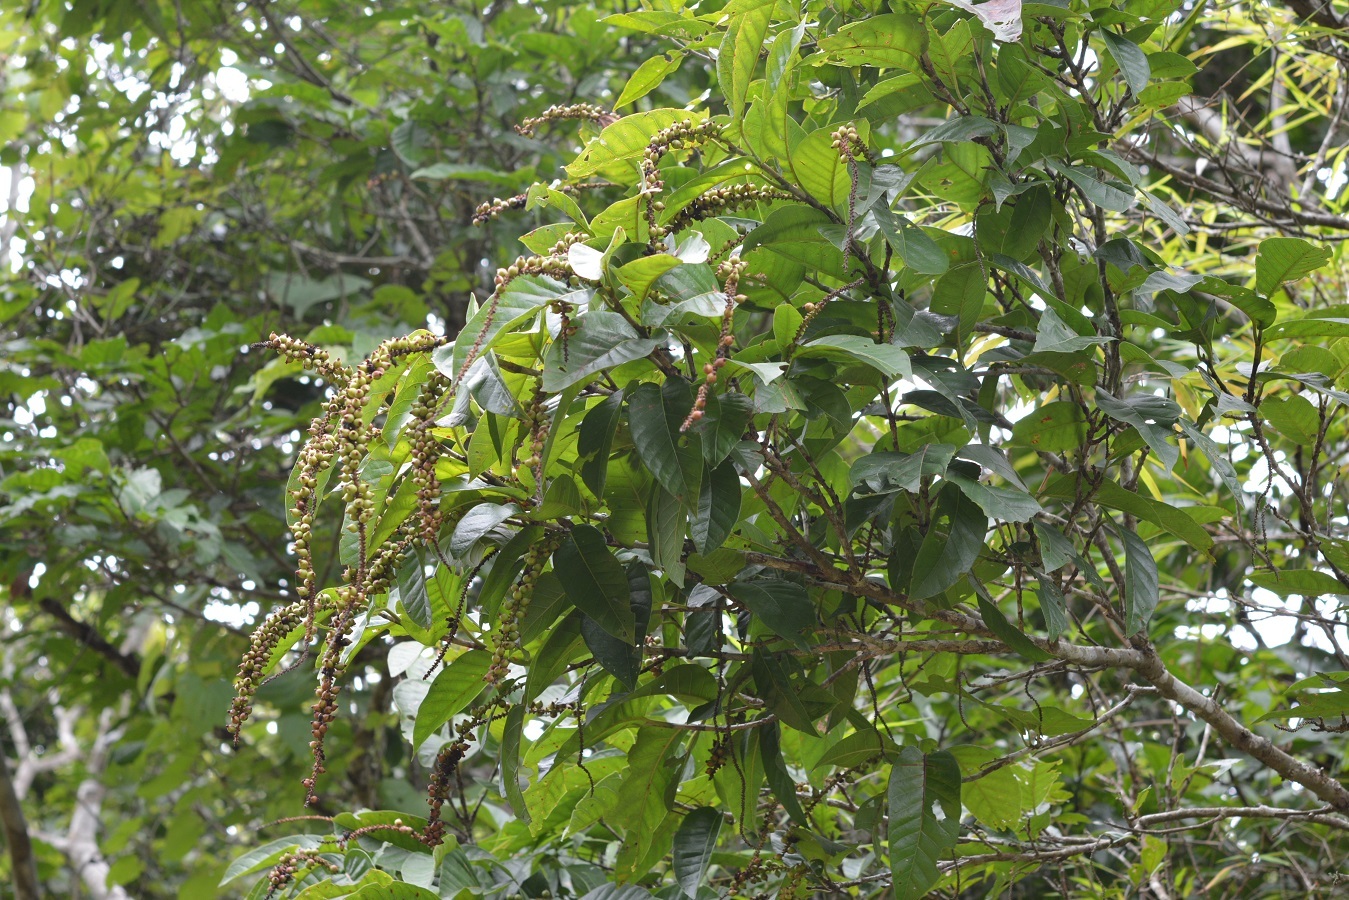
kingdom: Plantae
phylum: Tracheophyta
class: Magnoliopsida
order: Caryophyllales
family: Polygonaceae
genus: Coccoloba
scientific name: Coccoloba floresii
